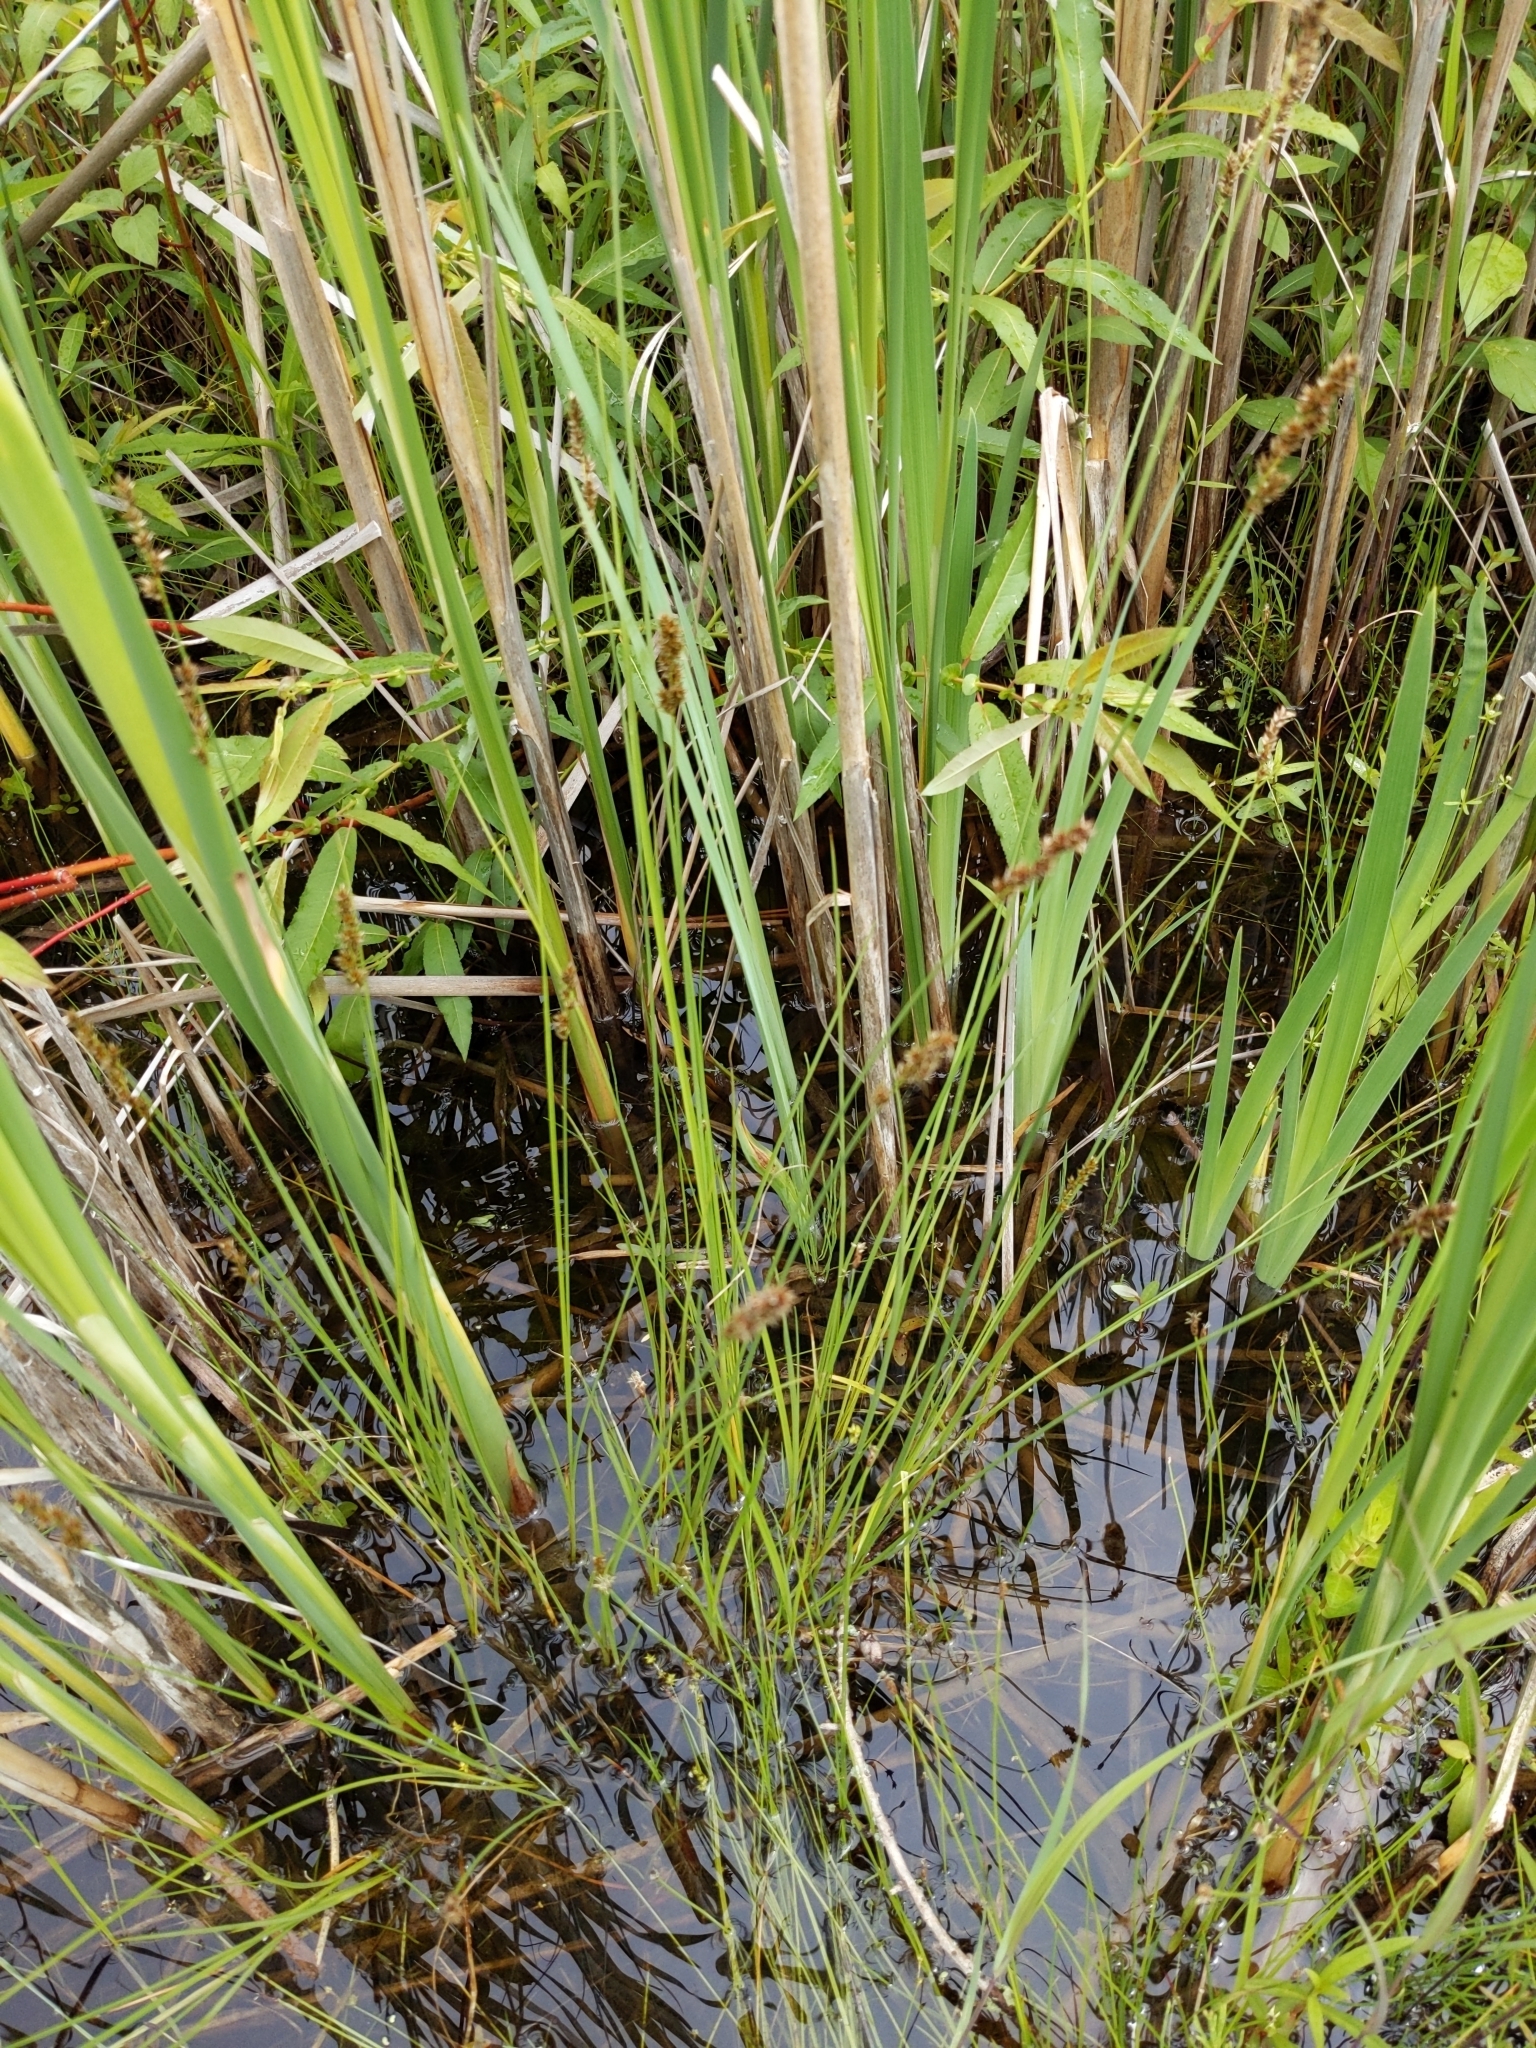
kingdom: Plantae
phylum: Tracheophyta
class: Liliopsida
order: Poales
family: Cyperaceae
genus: Carex
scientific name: Carex diandra
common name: Lesser tussock-sedge
